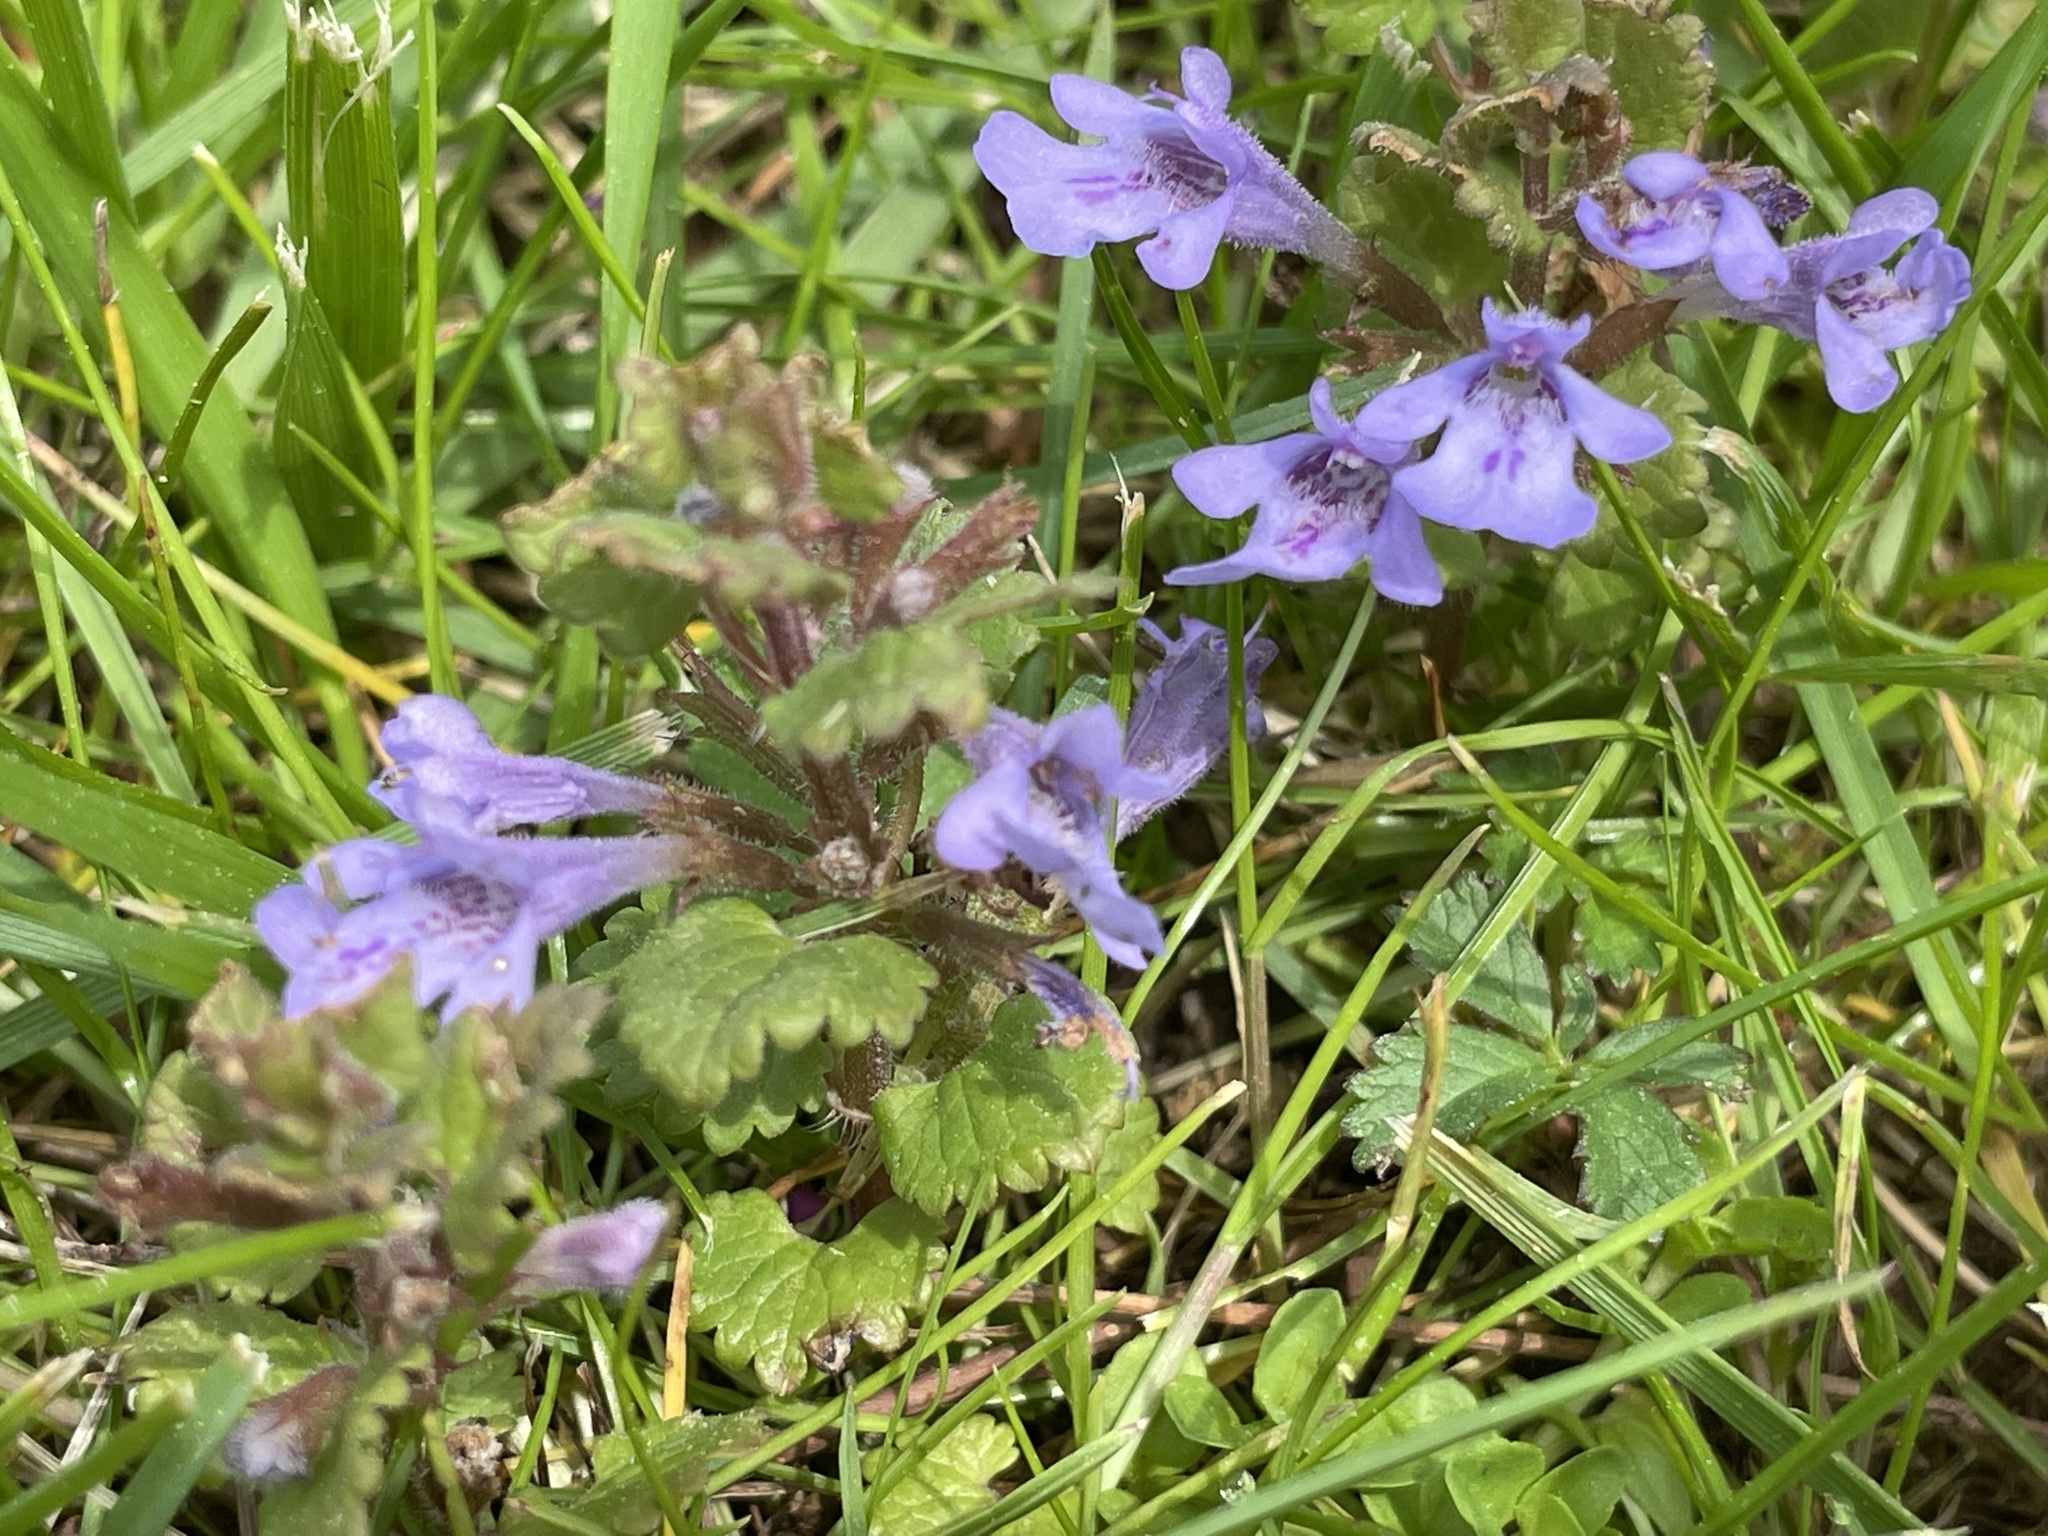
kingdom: Plantae
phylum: Tracheophyta
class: Magnoliopsida
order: Lamiales
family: Lamiaceae
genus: Glechoma
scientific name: Glechoma hederacea
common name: Ground ivy
